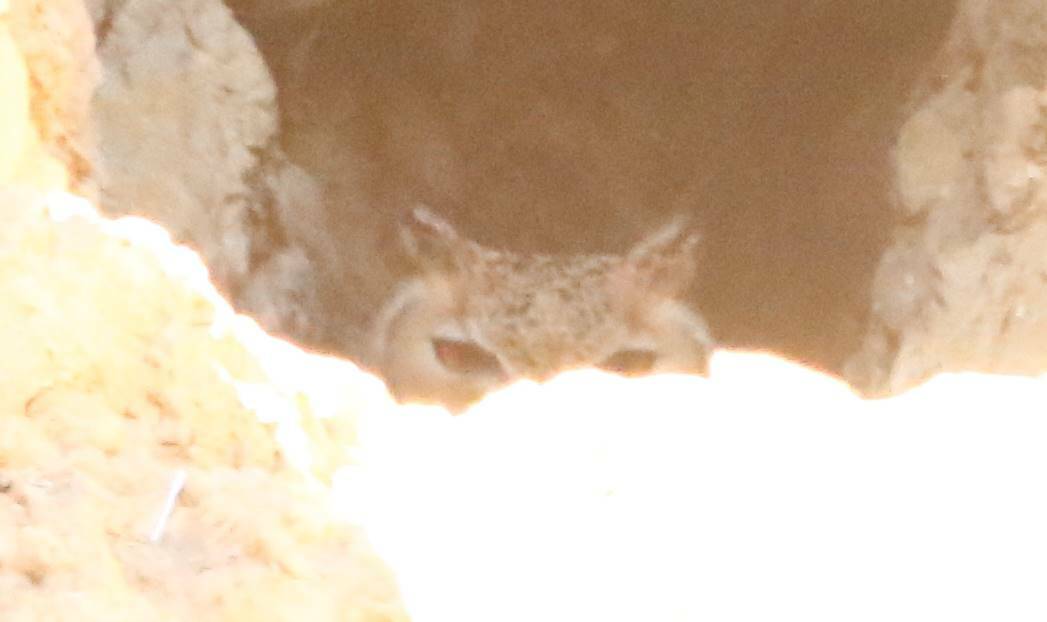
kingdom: Animalia
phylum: Chordata
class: Aves
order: Strigiformes
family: Strigidae
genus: Bubo
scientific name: Bubo ascalaphus
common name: Pharaoh eagle-owl
